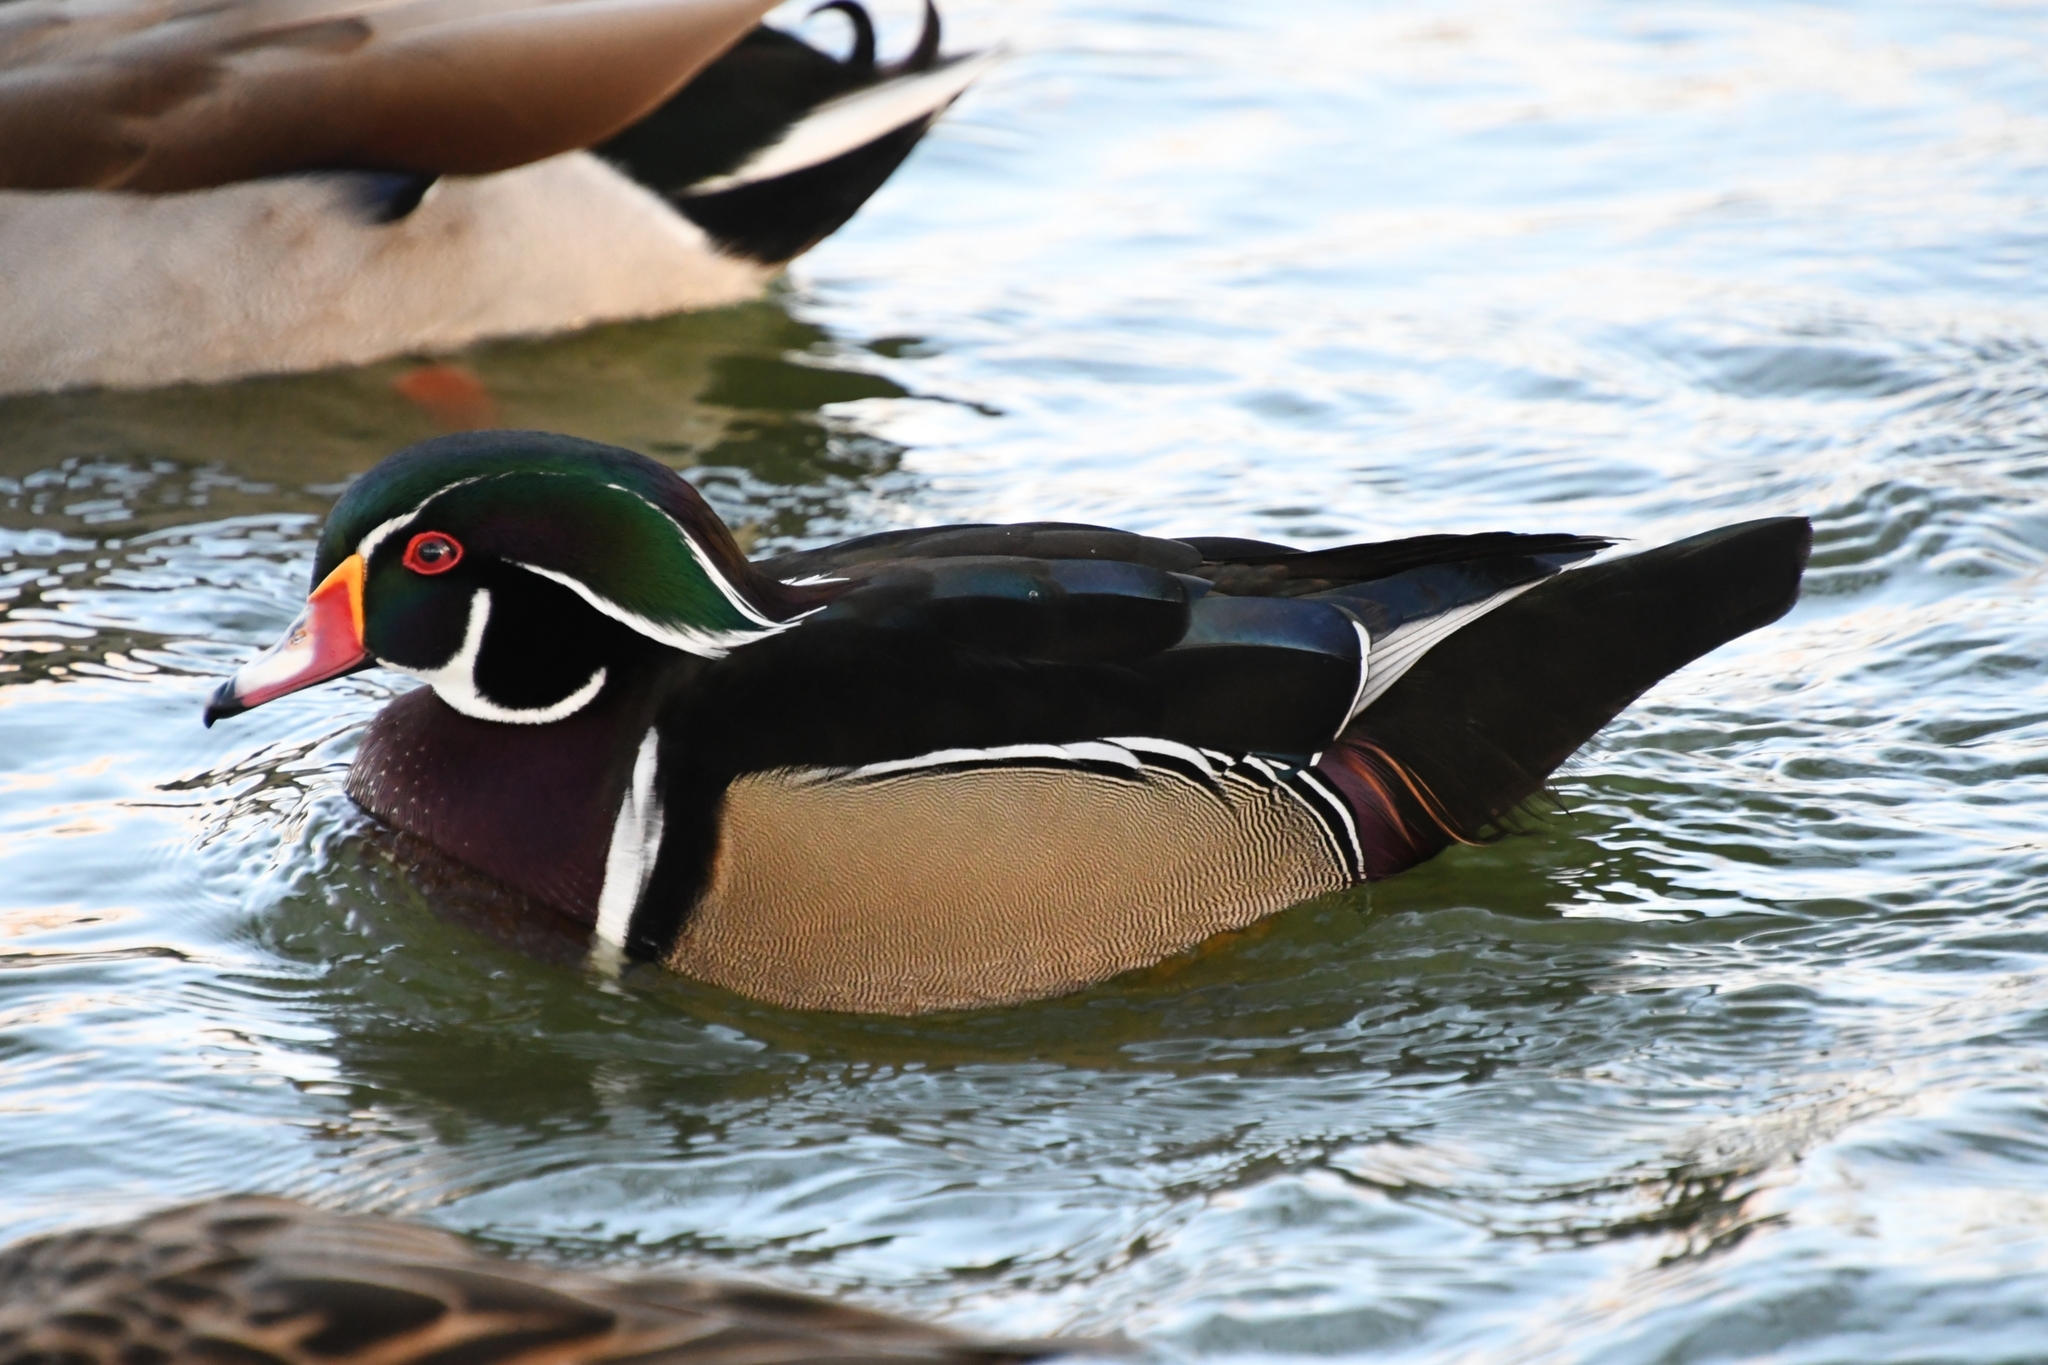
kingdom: Animalia
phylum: Chordata
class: Aves
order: Anseriformes
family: Anatidae
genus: Aix
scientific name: Aix sponsa
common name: Wood duck
